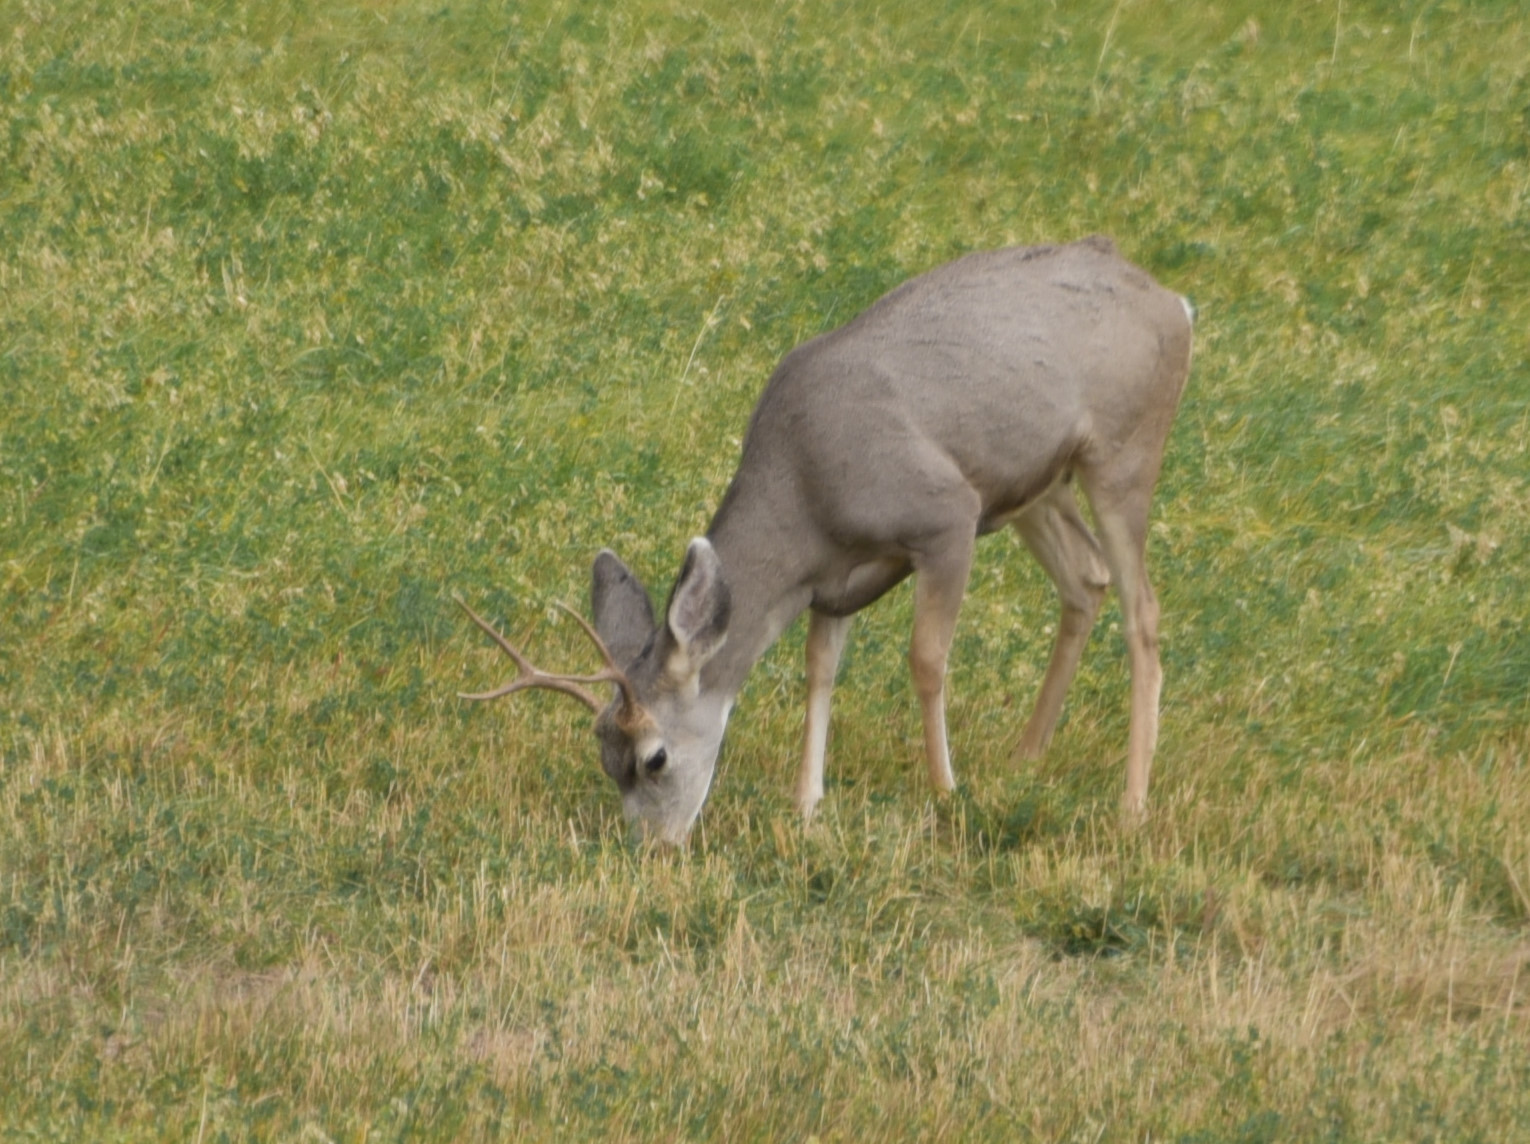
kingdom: Animalia
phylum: Chordata
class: Mammalia
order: Artiodactyla
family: Cervidae
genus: Odocoileus
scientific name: Odocoileus hemionus
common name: Mule deer
